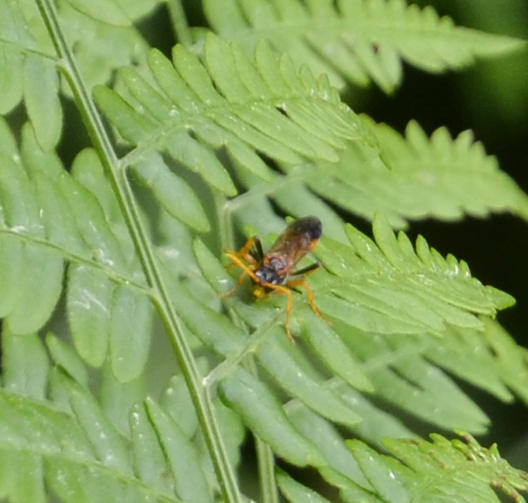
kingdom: Animalia
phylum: Arthropoda
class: Insecta
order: Hymenoptera
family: Tenthredinidae
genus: Tenthredo
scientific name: Tenthredo campestris
